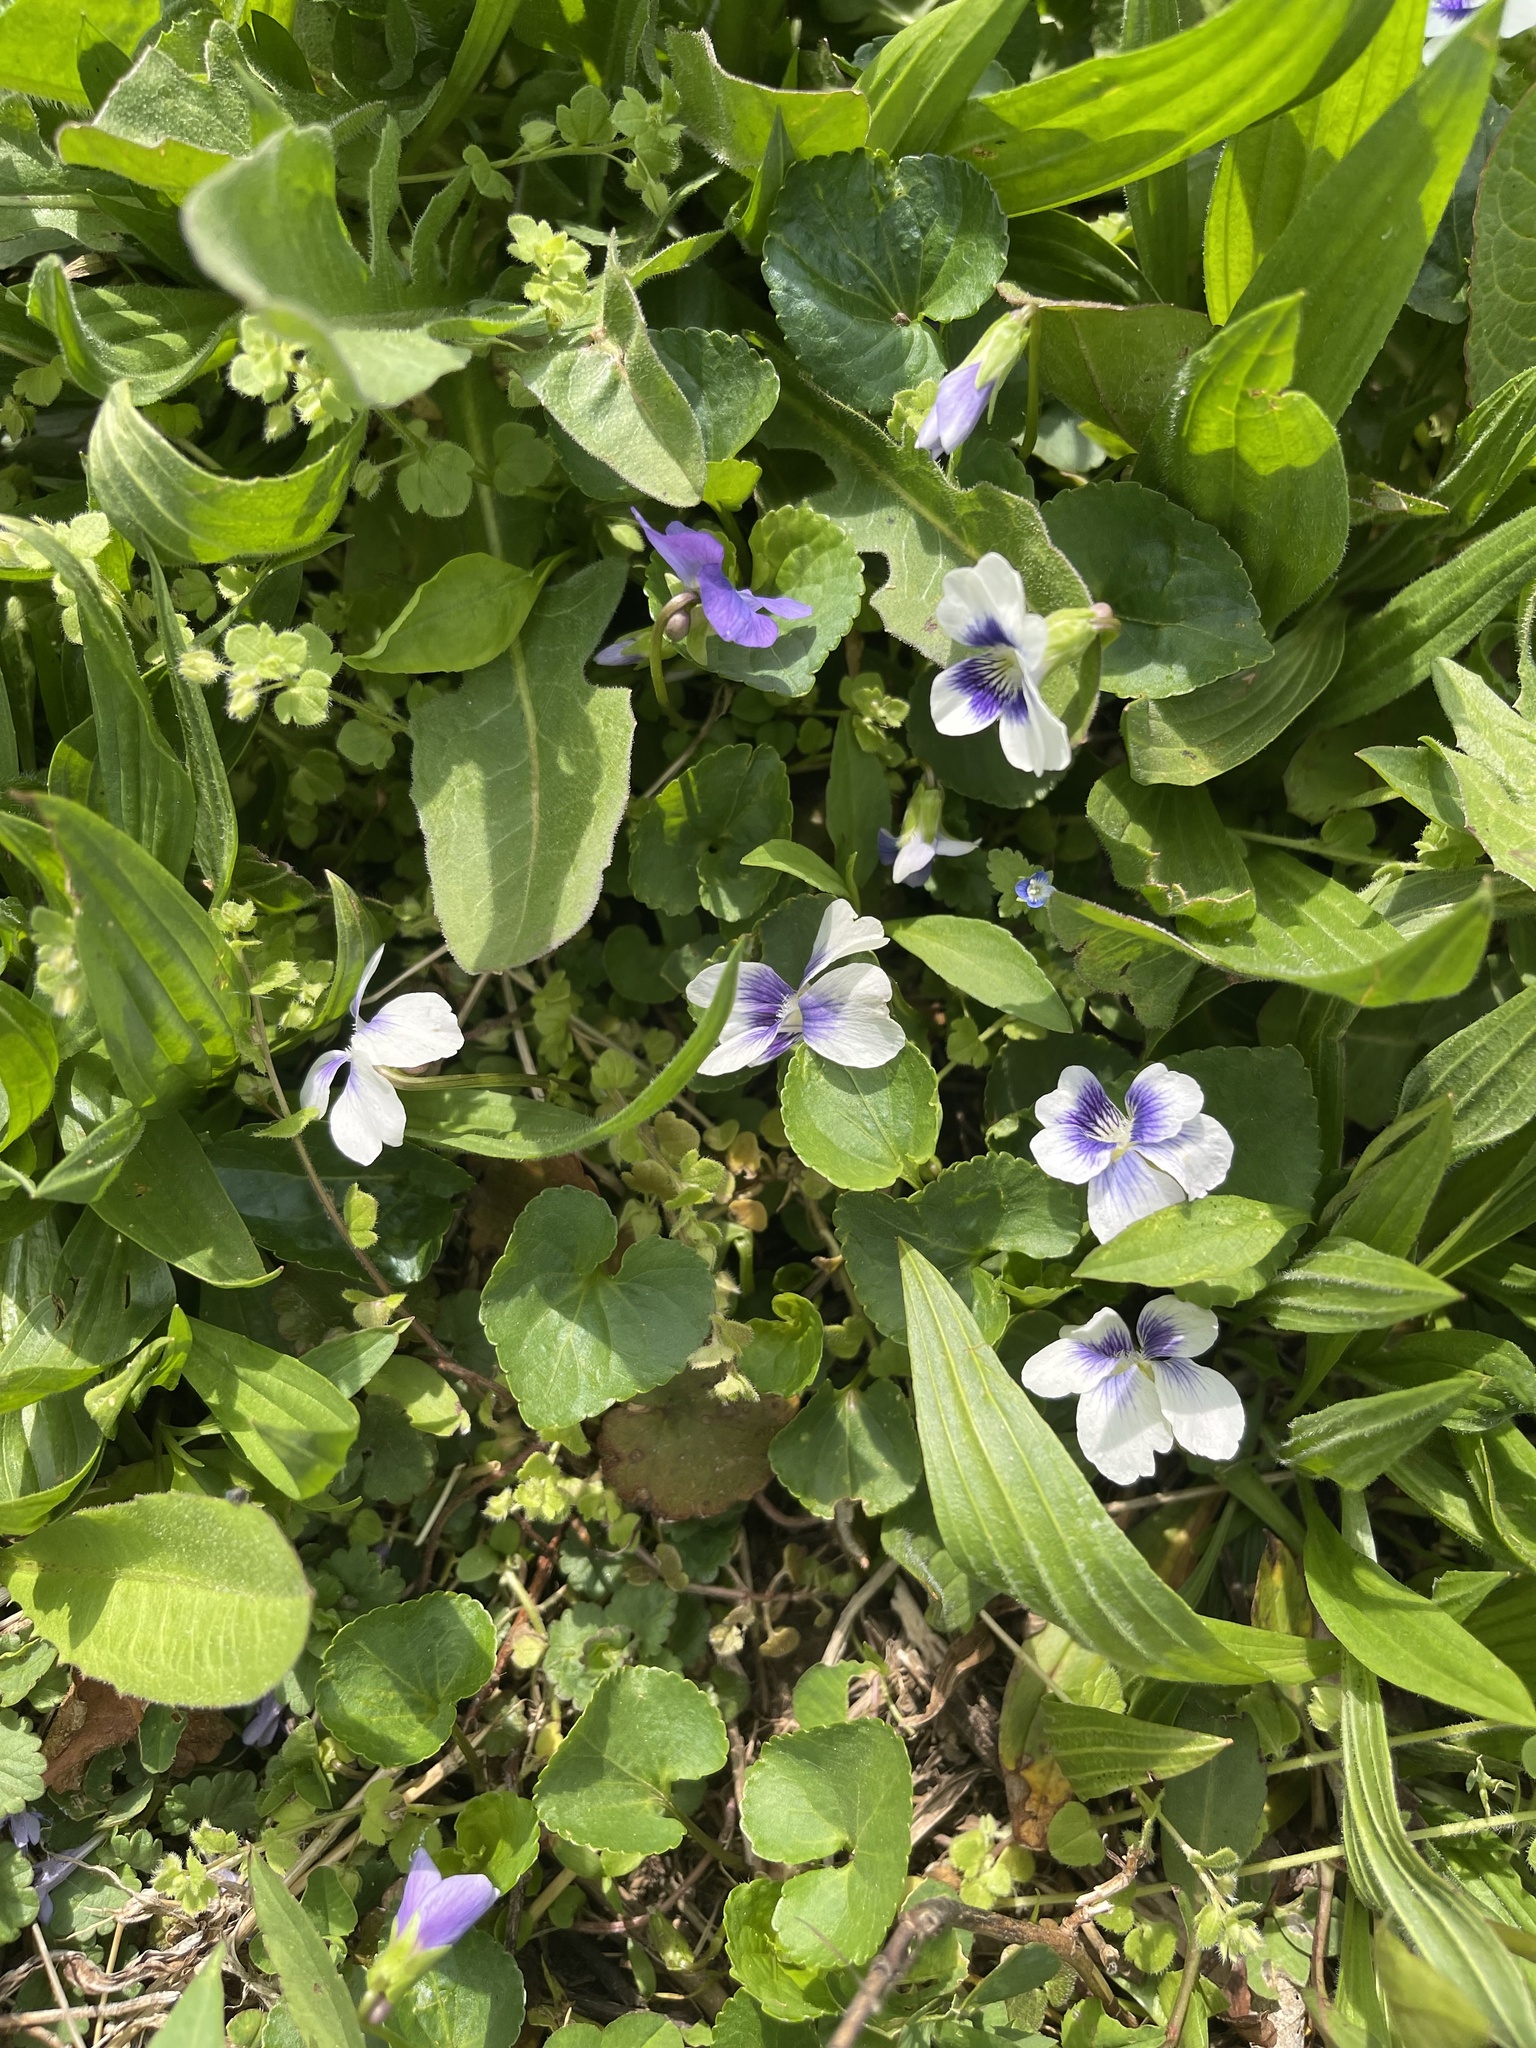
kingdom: Plantae
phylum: Tracheophyta
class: Magnoliopsida
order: Malpighiales
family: Violaceae
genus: Viola
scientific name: Viola sororia
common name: Dooryard violet
